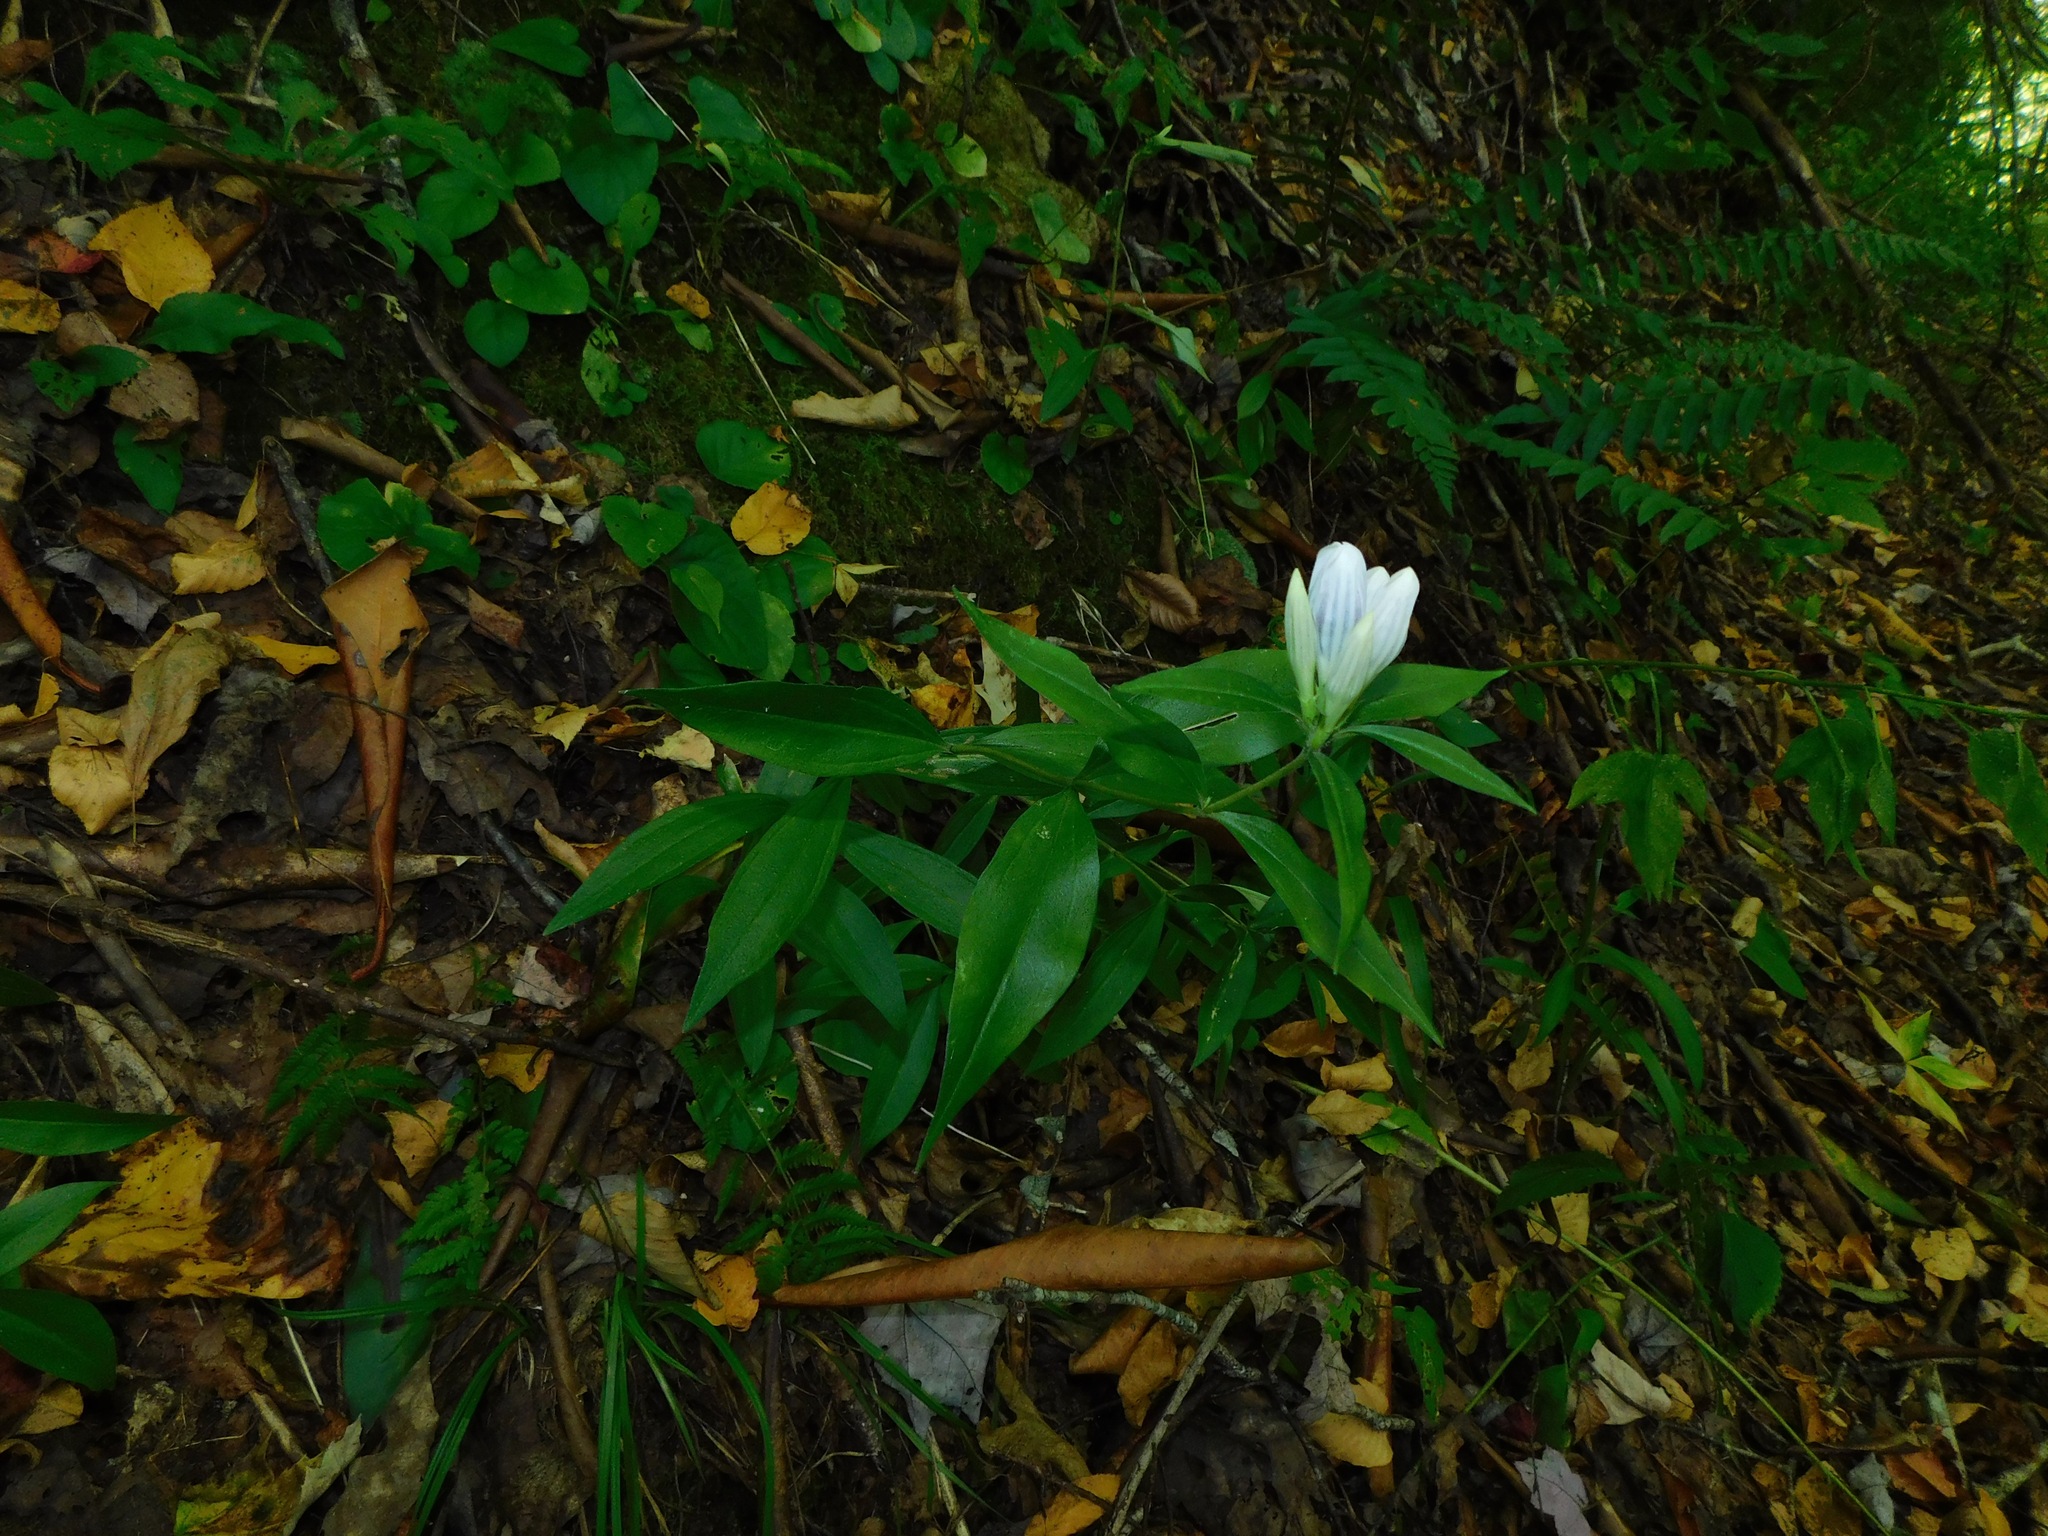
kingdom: Plantae
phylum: Tracheophyta
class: Magnoliopsida
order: Gentianales
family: Gentianaceae
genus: Gentiana
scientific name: Gentiana decora
